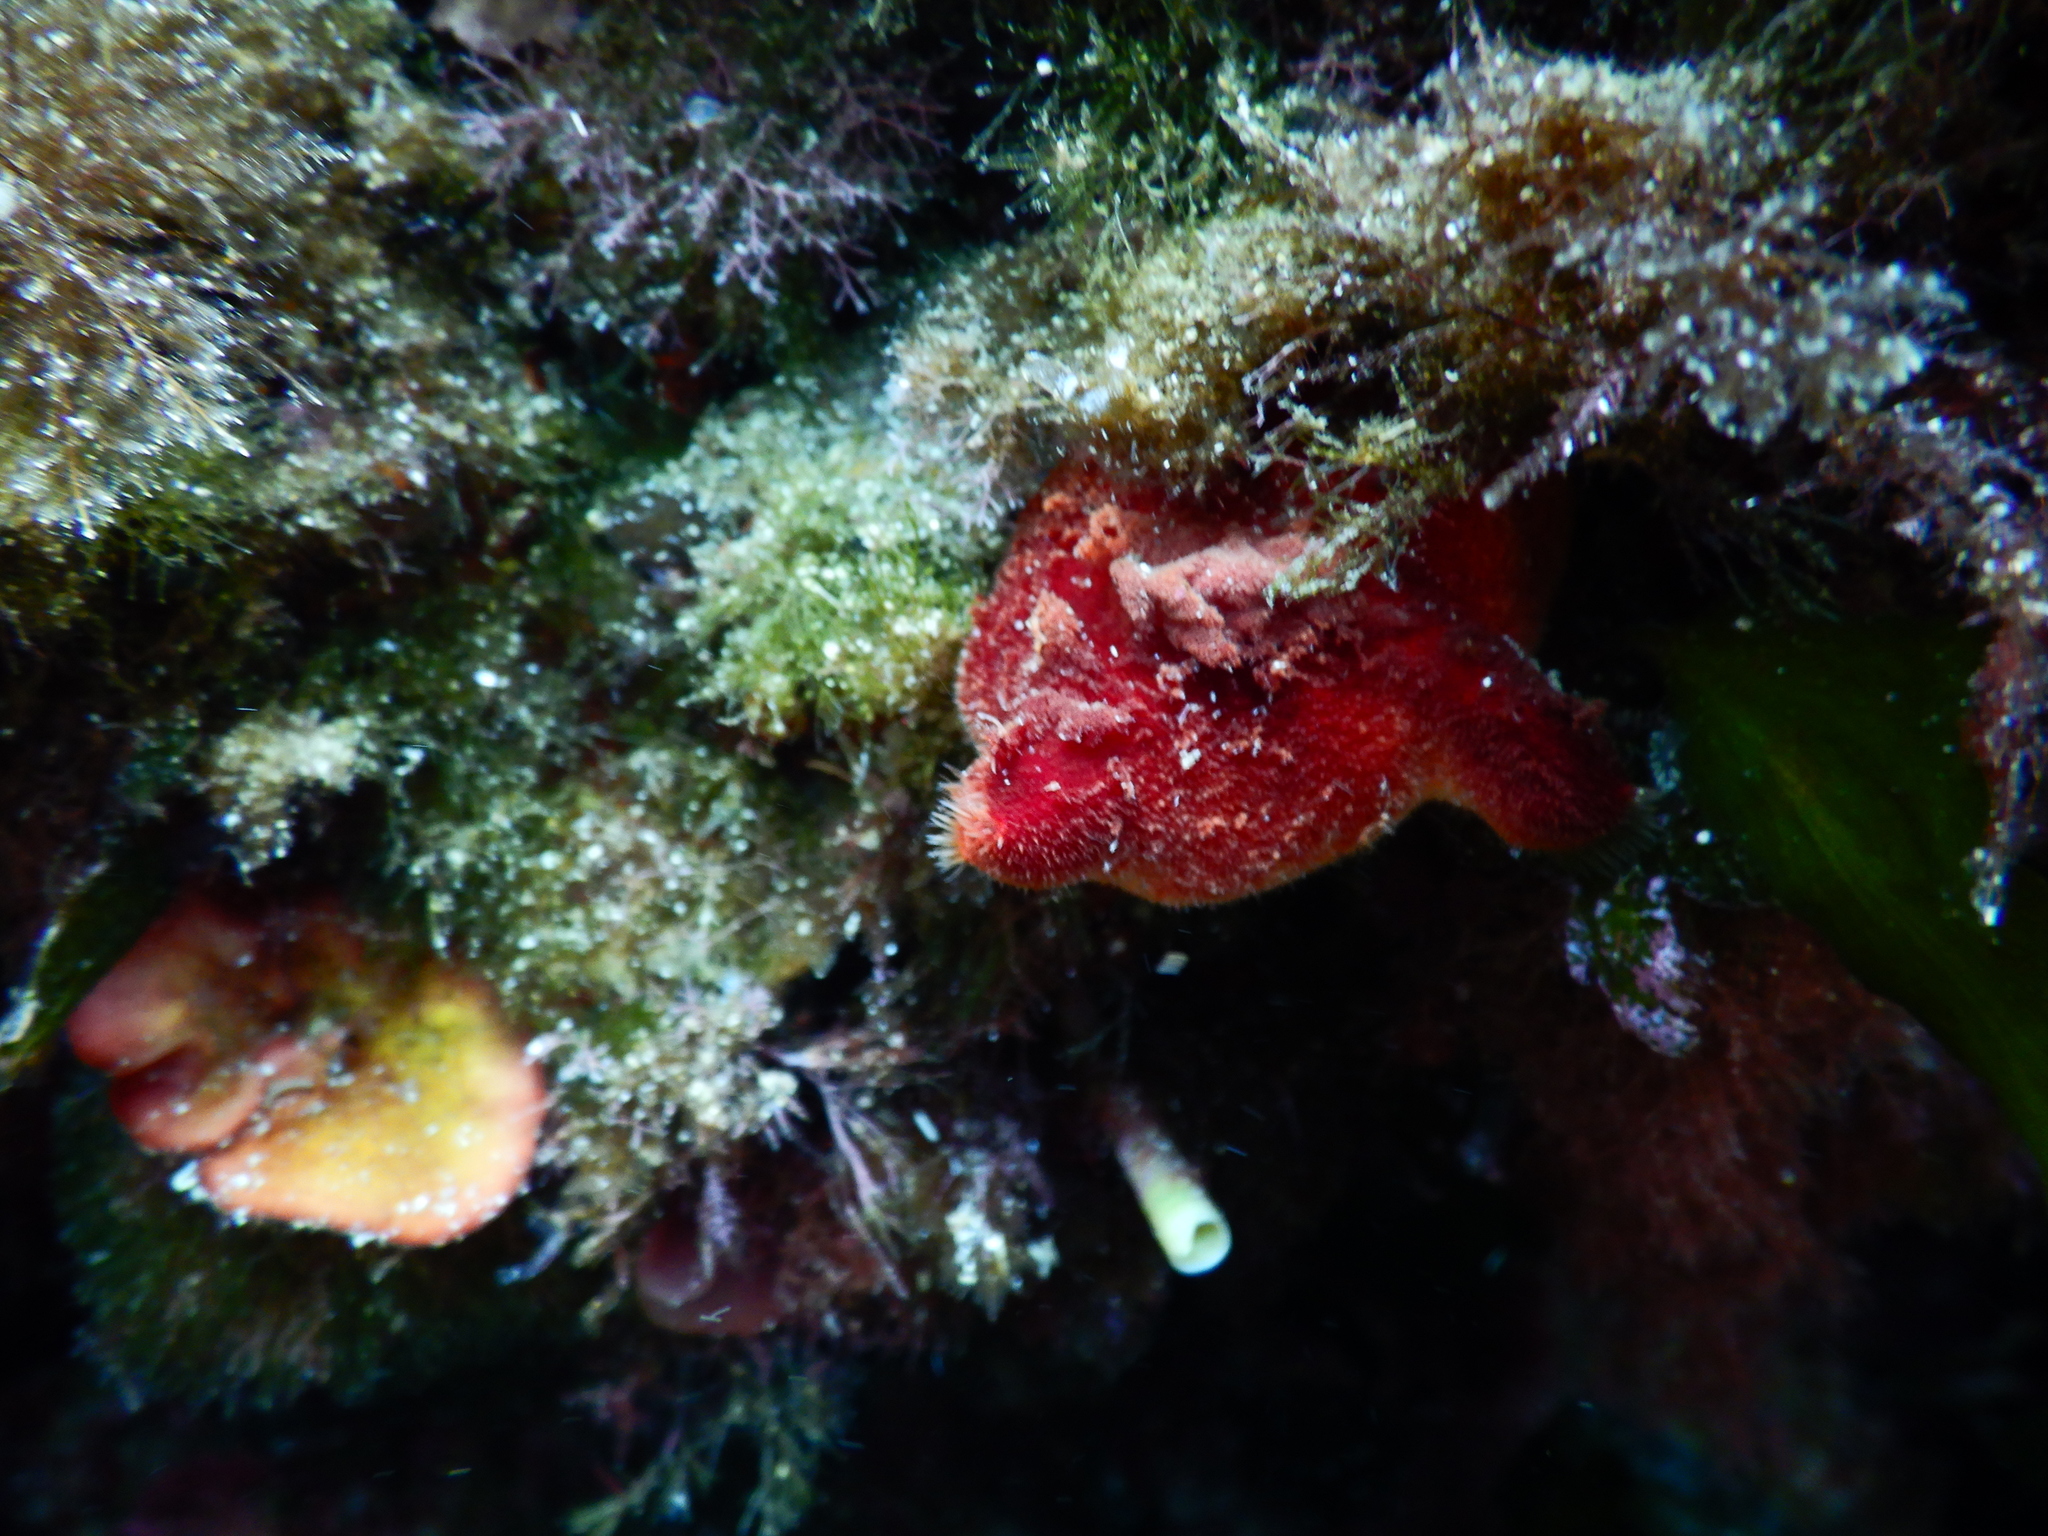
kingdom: Animalia
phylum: Chordata
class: Ascidiacea
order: Stolidobranchia
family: Pyuridae
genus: Halocynthia
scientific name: Halocynthia papillosa
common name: Red sea-squirt
